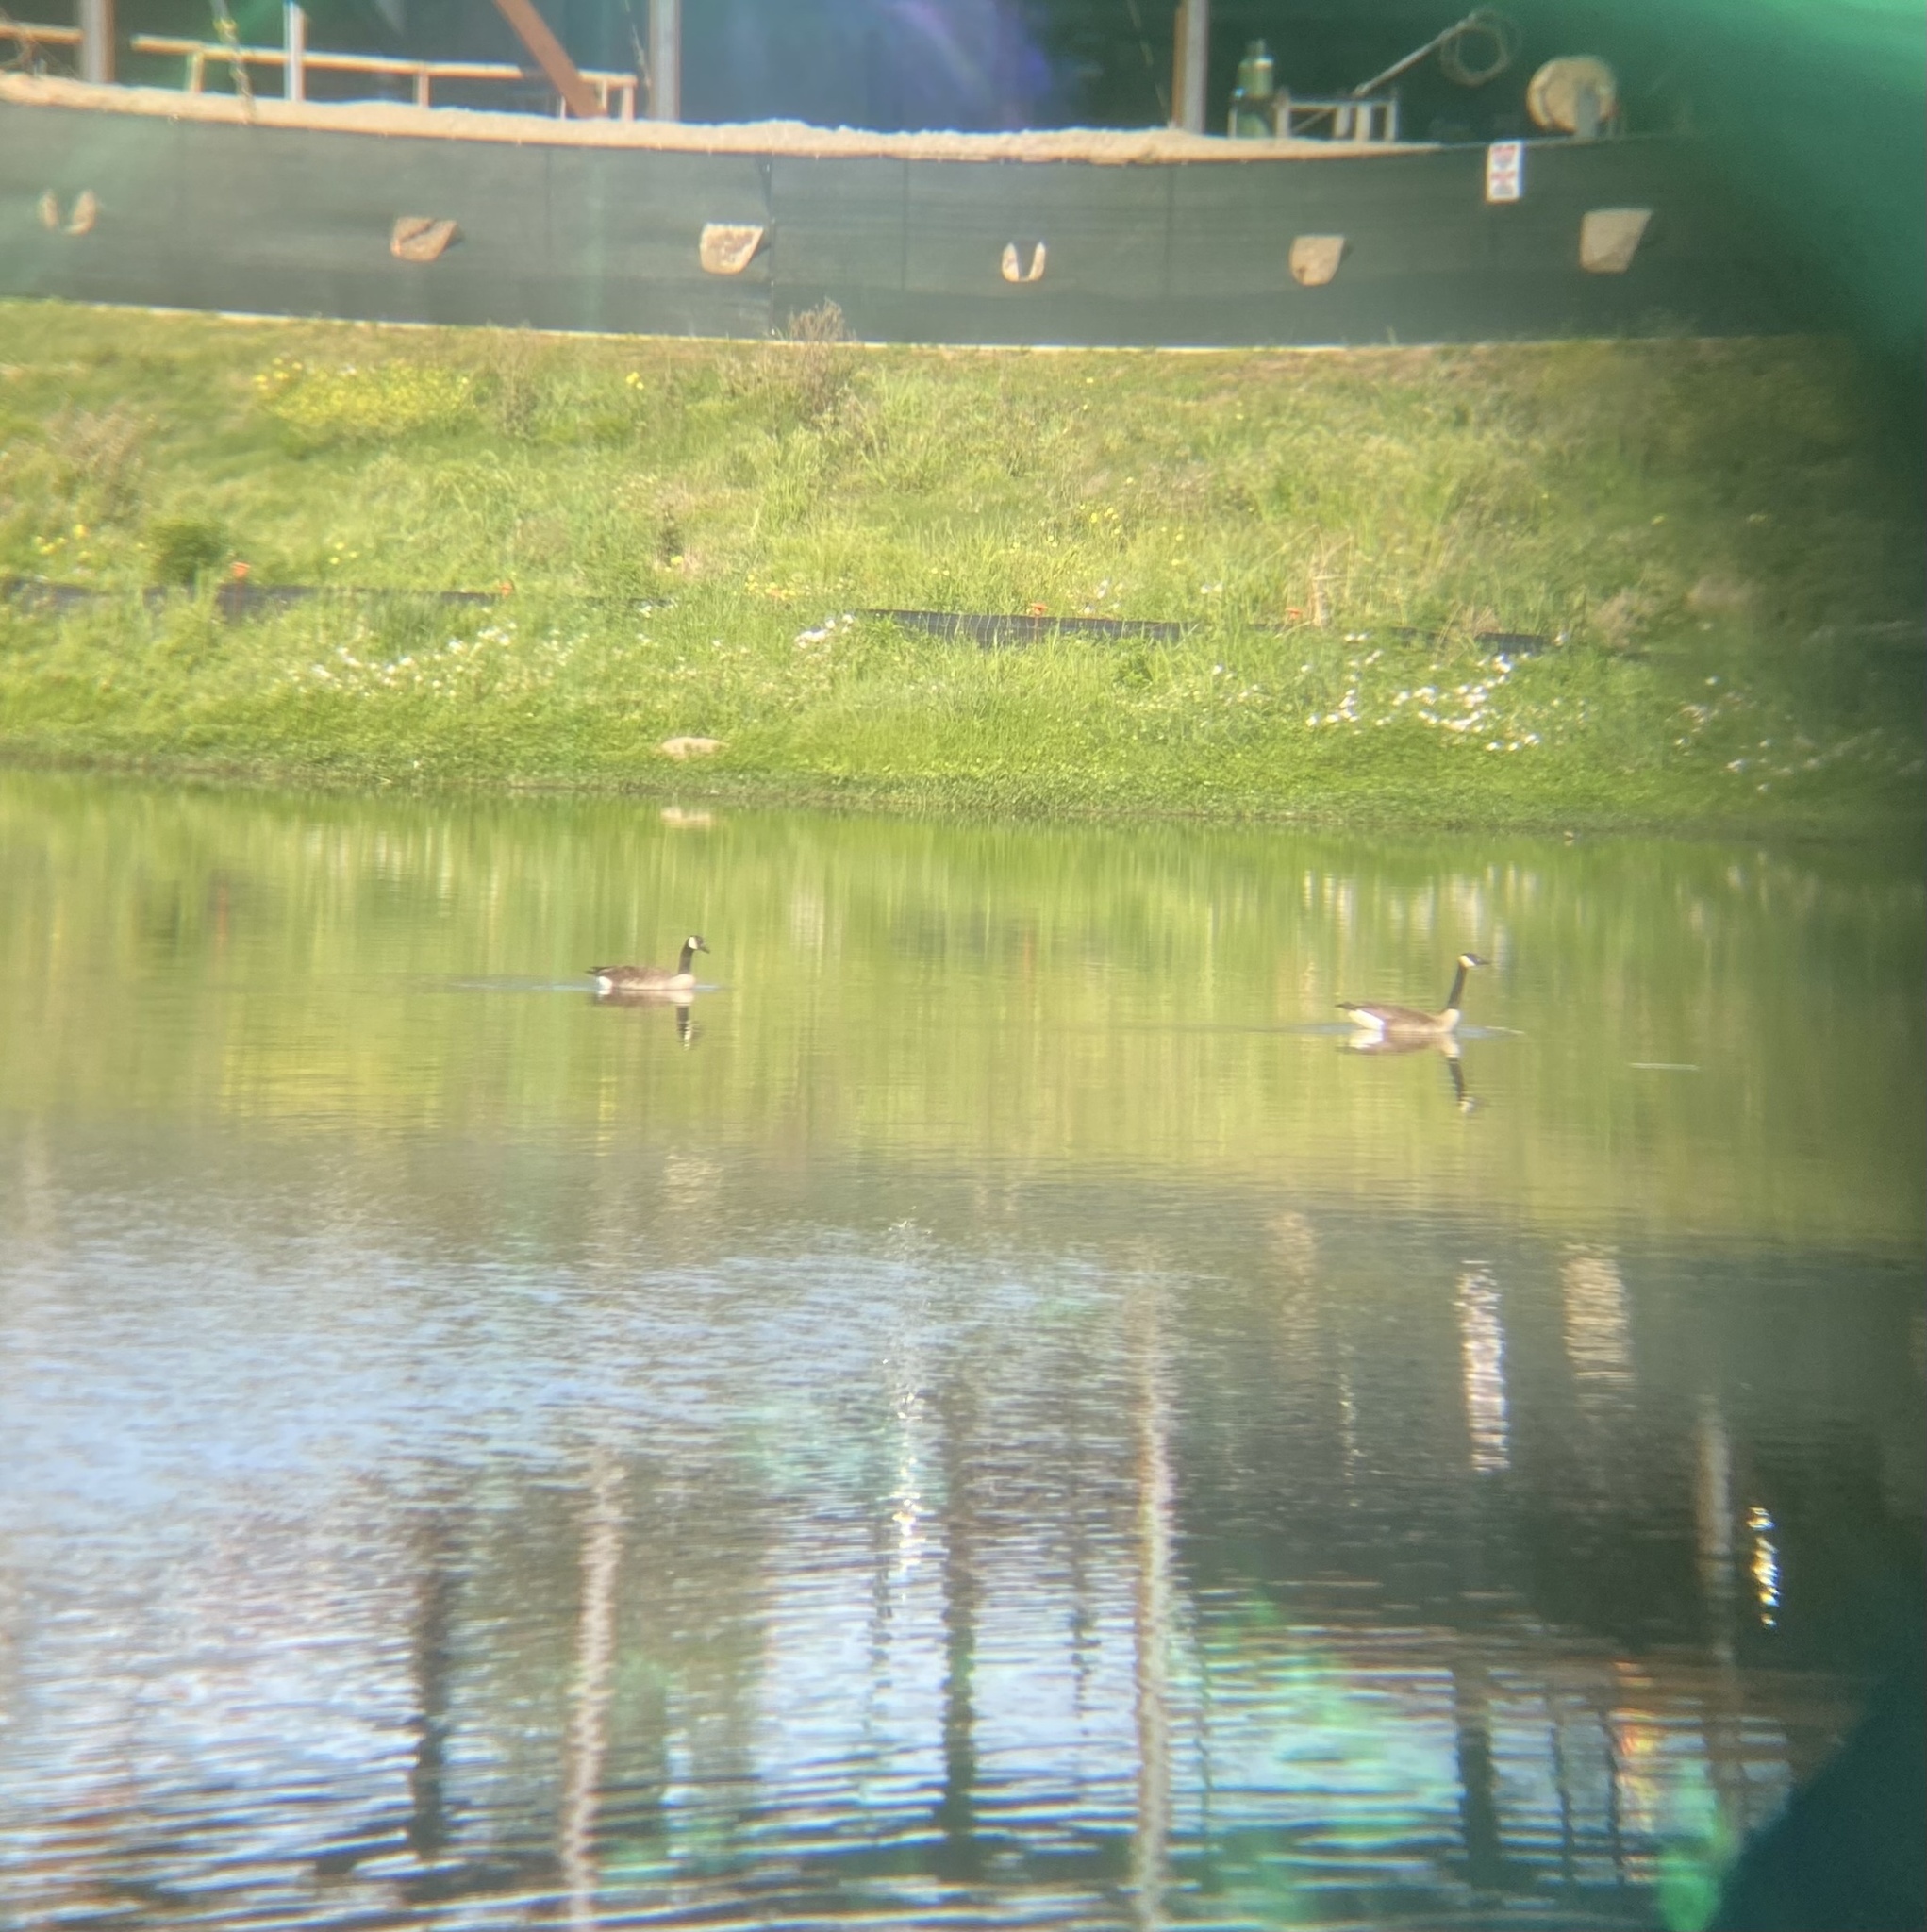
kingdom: Animalia
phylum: Chordata
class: Aves
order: Anseriformes
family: Anatidae
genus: Branta
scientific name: Branta canadensis
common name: Canada goose
